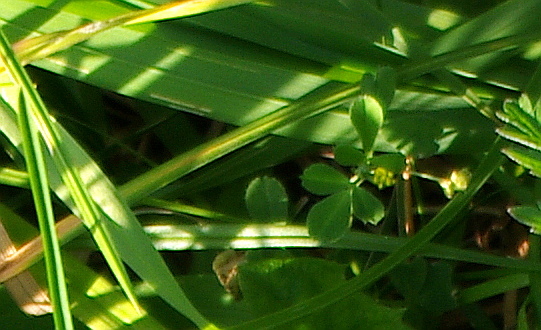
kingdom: Plantae
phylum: Tracheophyta
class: Magnoliopsida
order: Fabales
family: Fabaceae
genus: Medicago
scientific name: Medicago lupulina
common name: Black medick
